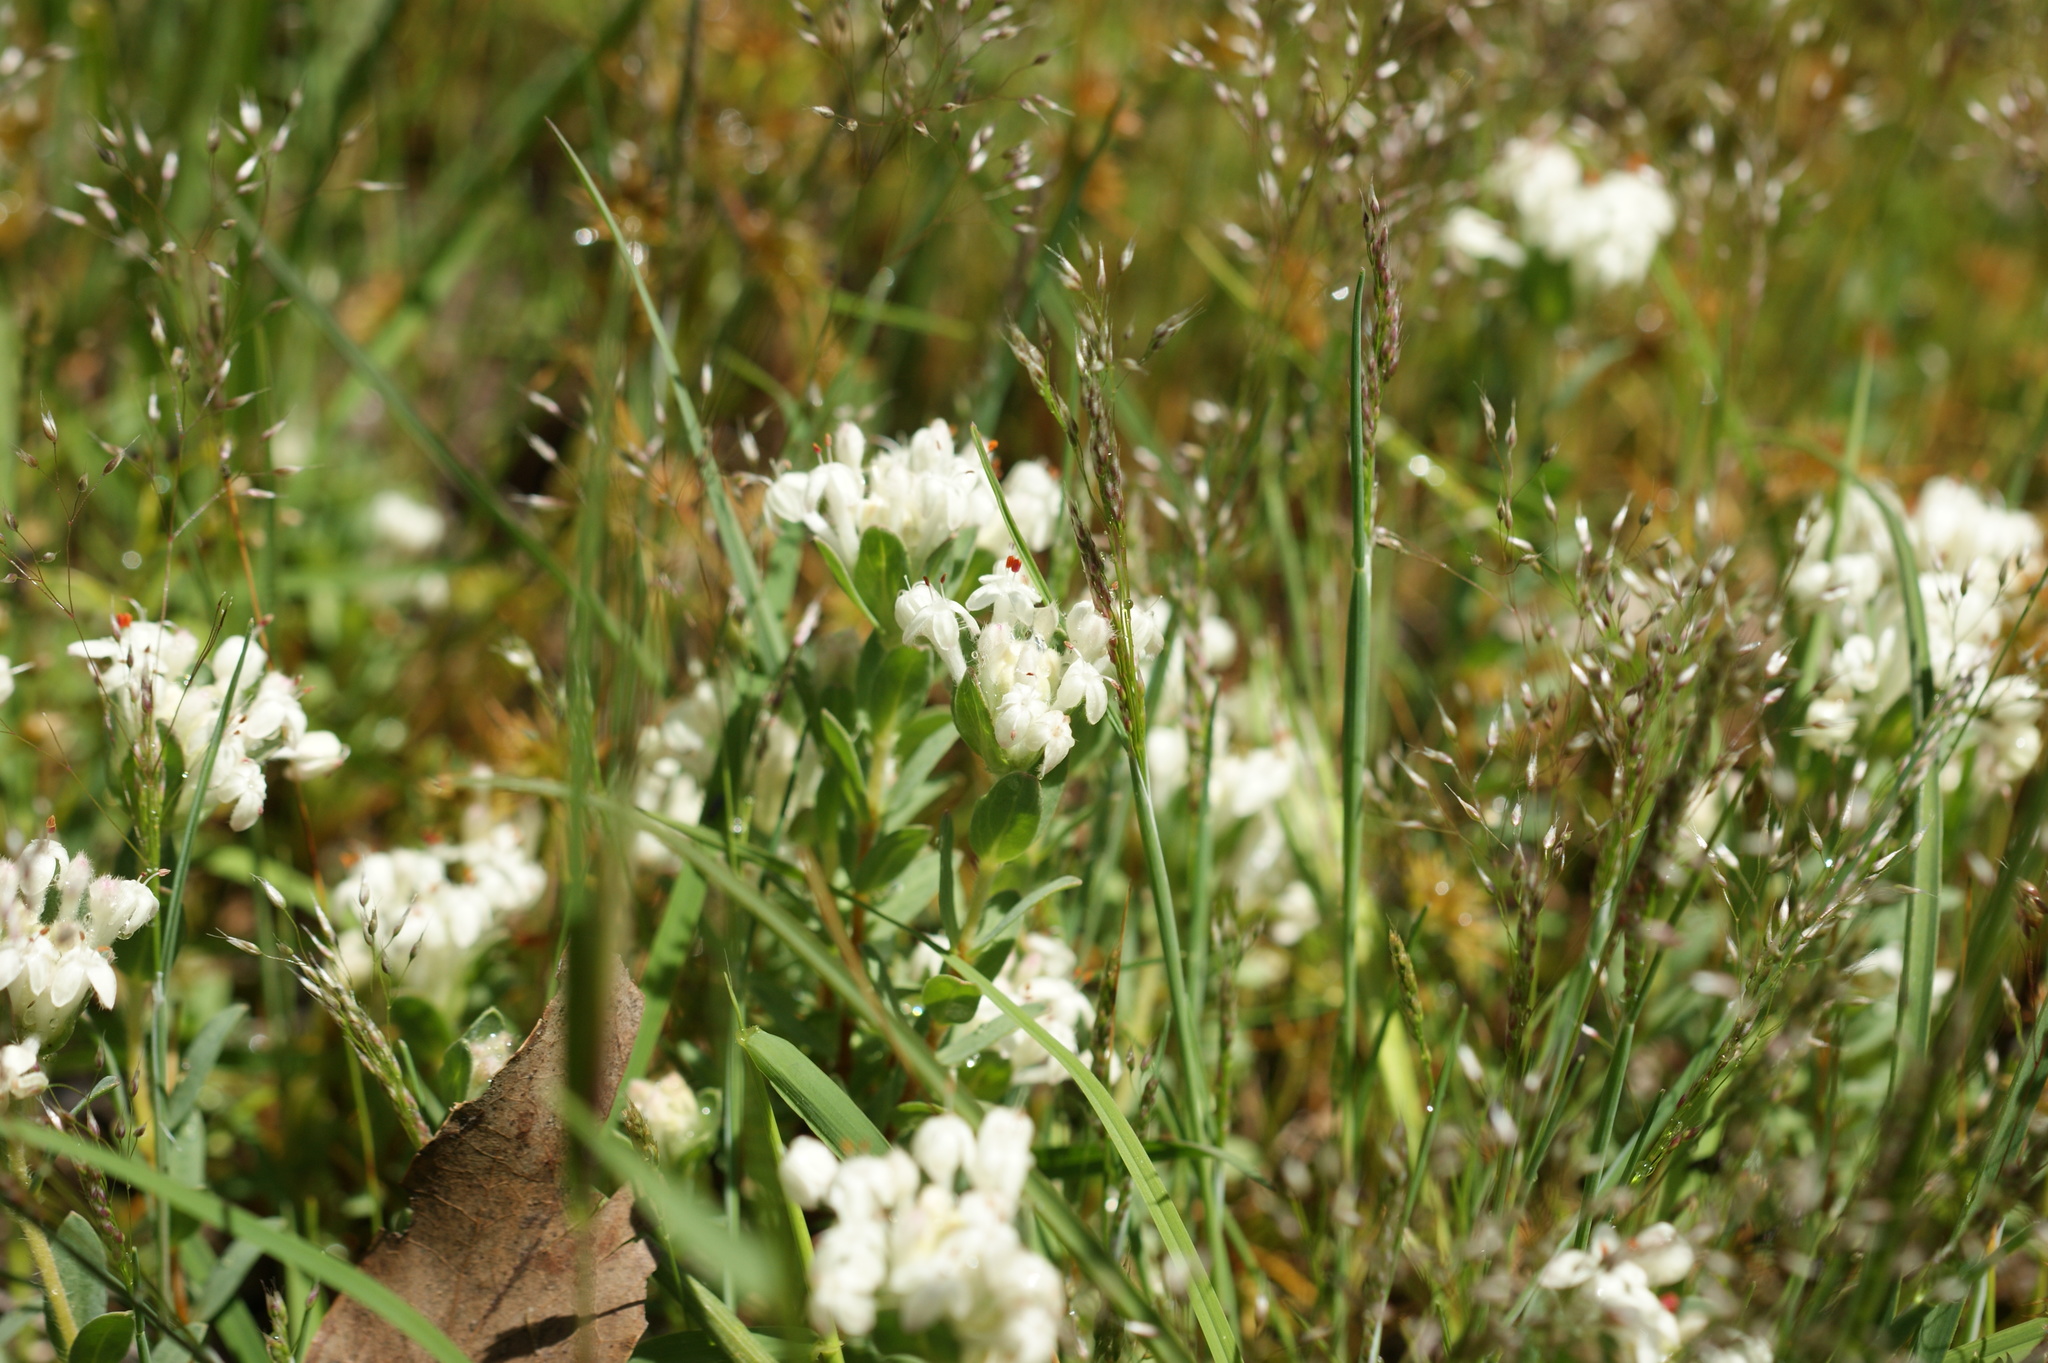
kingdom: Plantae
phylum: Tracheophyta
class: Magnoliopsida
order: Malvales
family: Thymelaeaceae
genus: Pimelea
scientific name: Pimelea humilis
